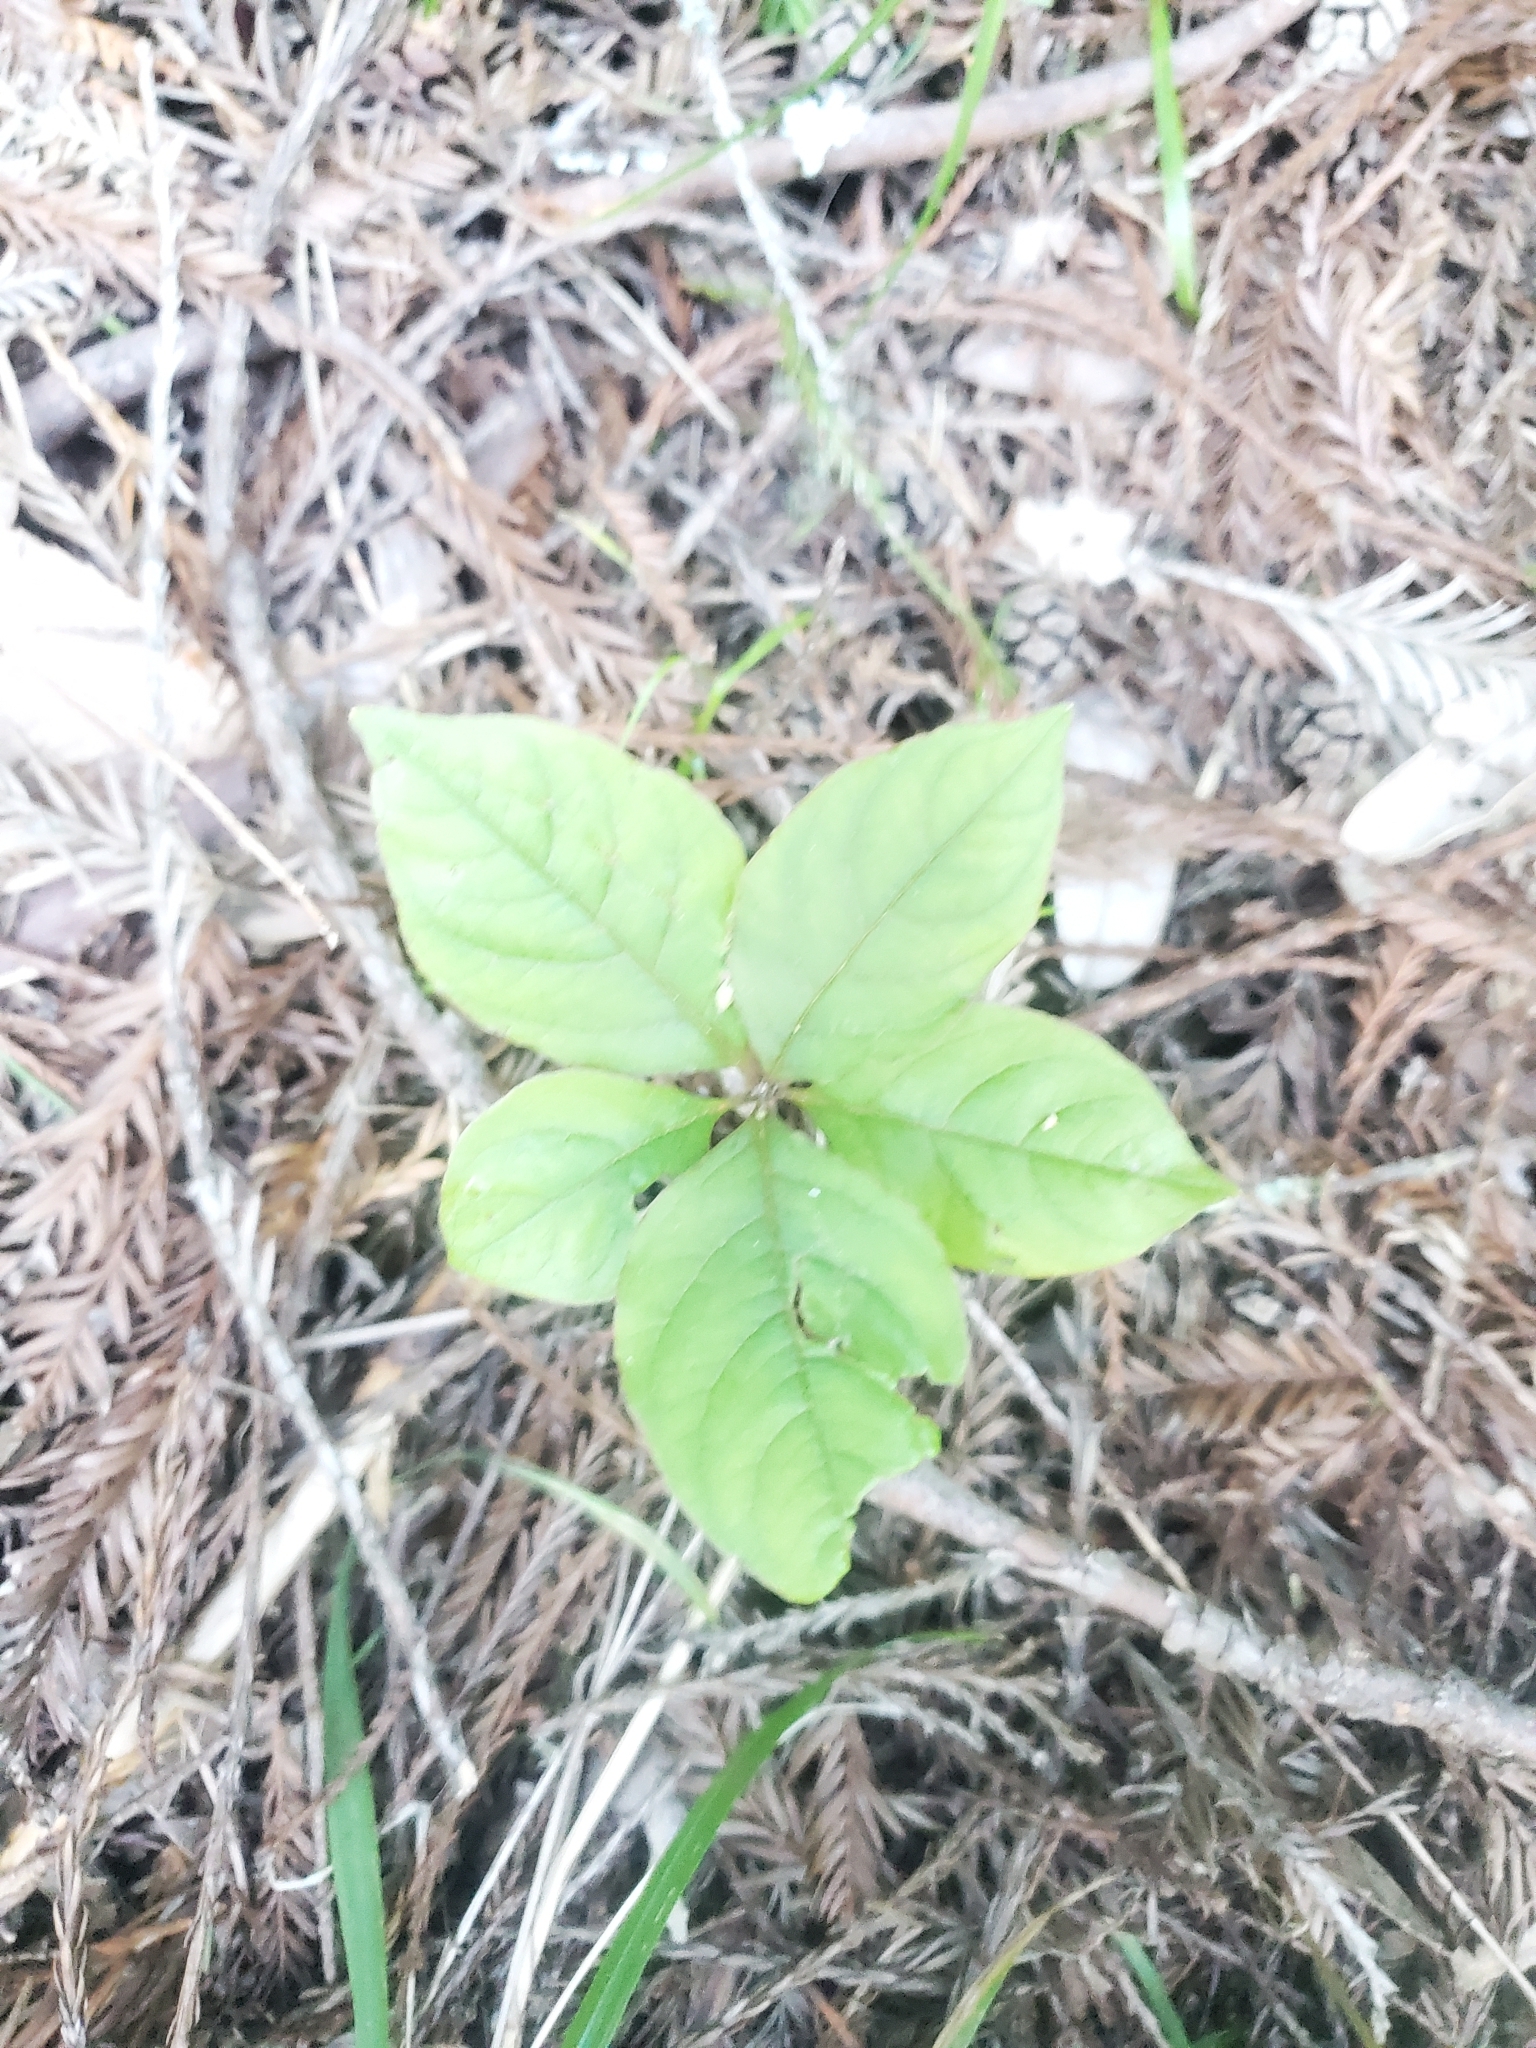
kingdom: Plantae
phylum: Tracheophyta
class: Magnoliopsida
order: Ericales
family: Primulaceae
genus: Lysimachia
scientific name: Lysimachia latifolia
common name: Pacific starflower
